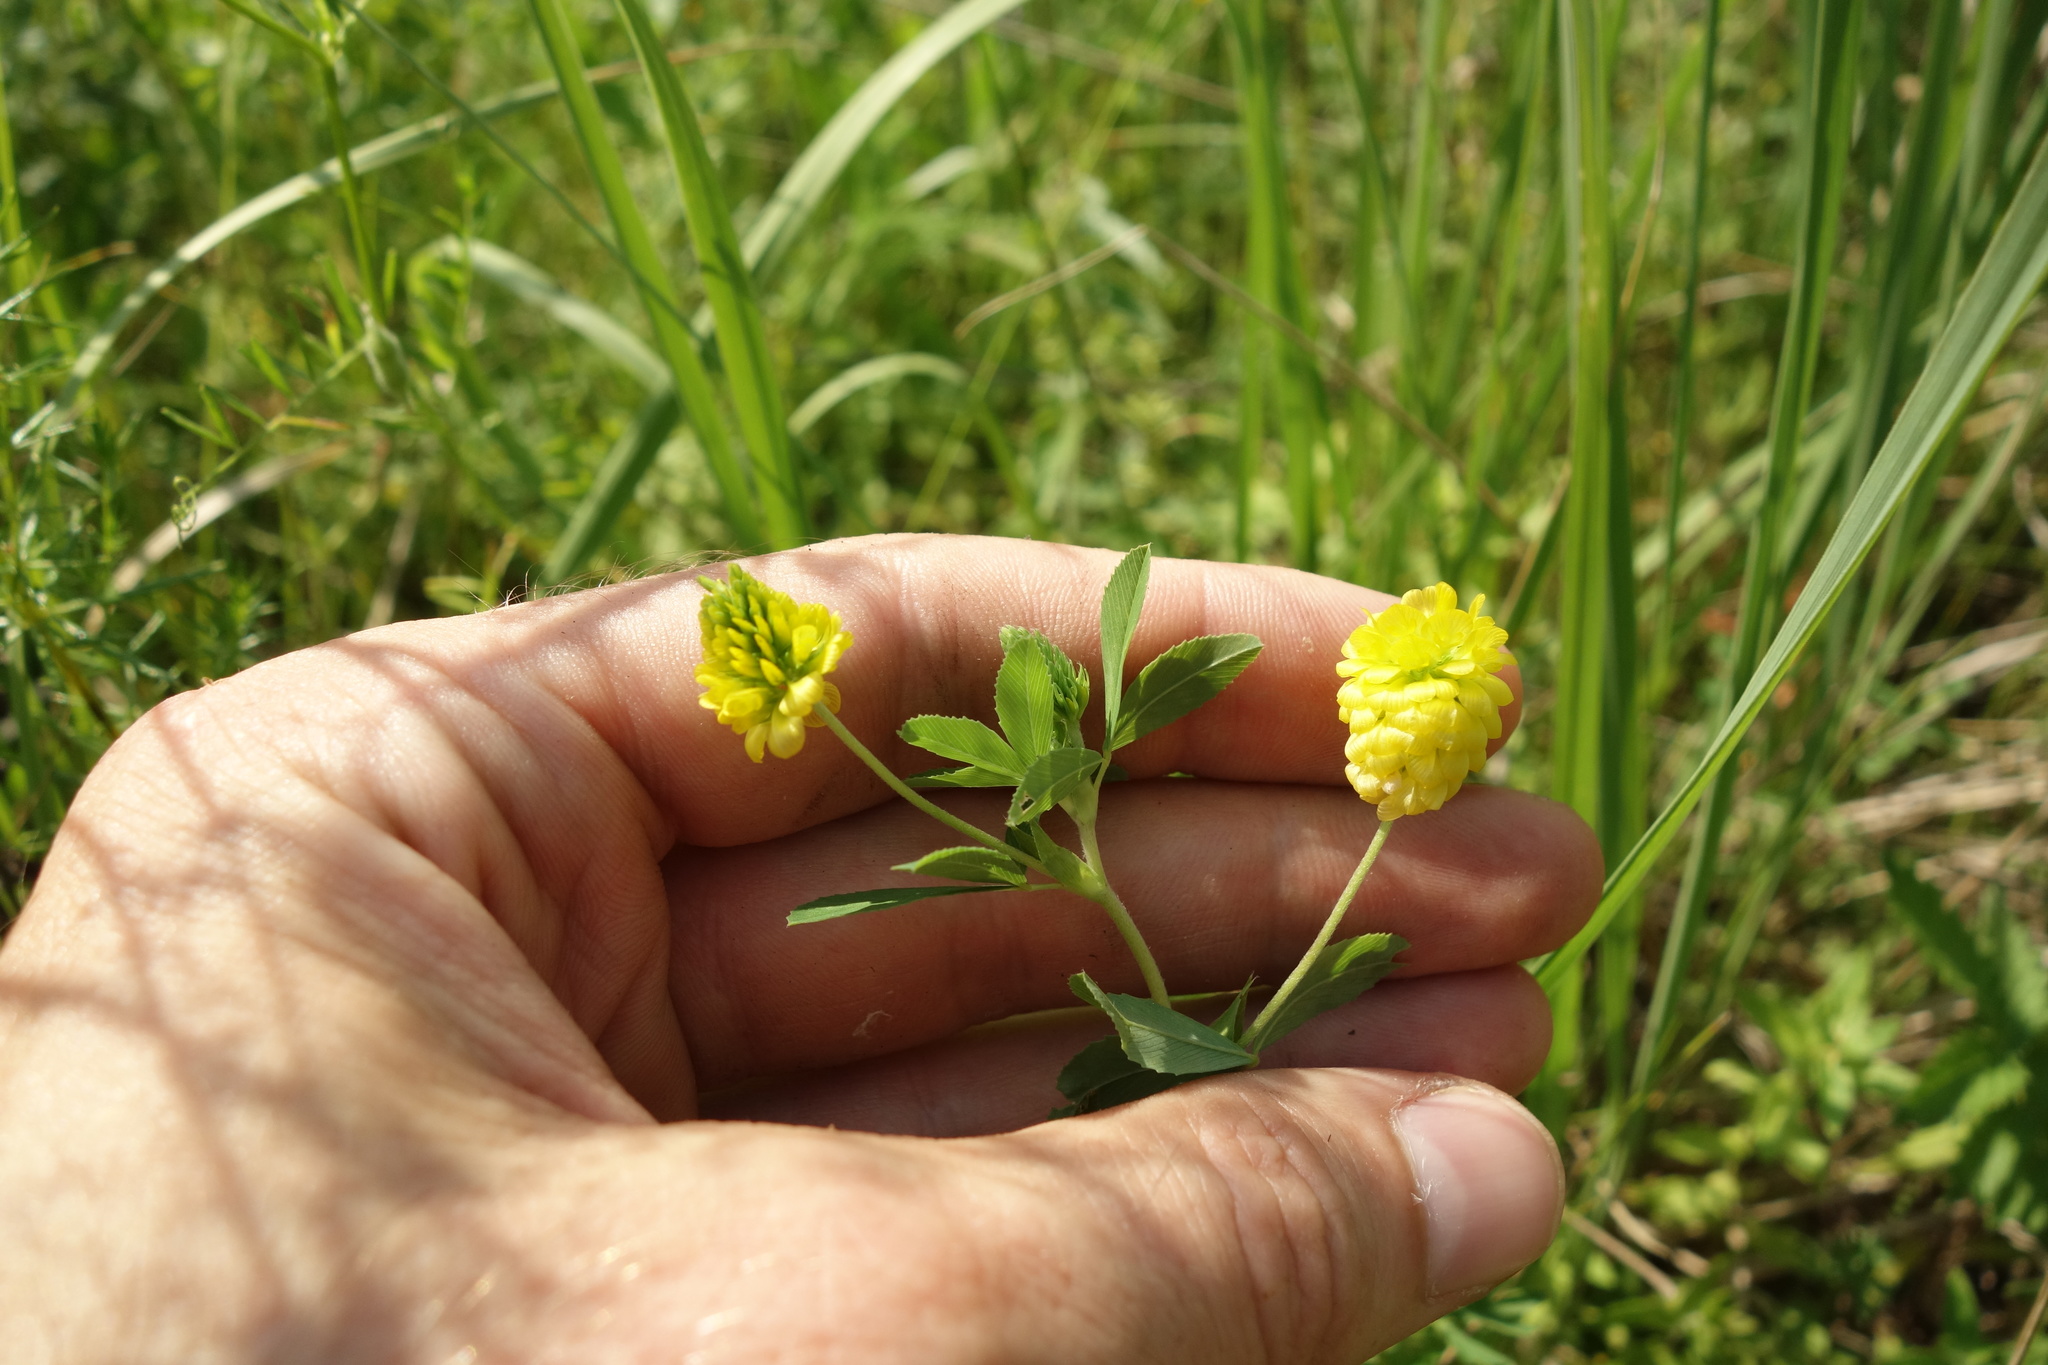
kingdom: Plantae
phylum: Tracheophyta
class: Magnoliopsida
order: Fabales
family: Fabaceae
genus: Trifolium
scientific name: Trifolium aureum
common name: Golden clover
